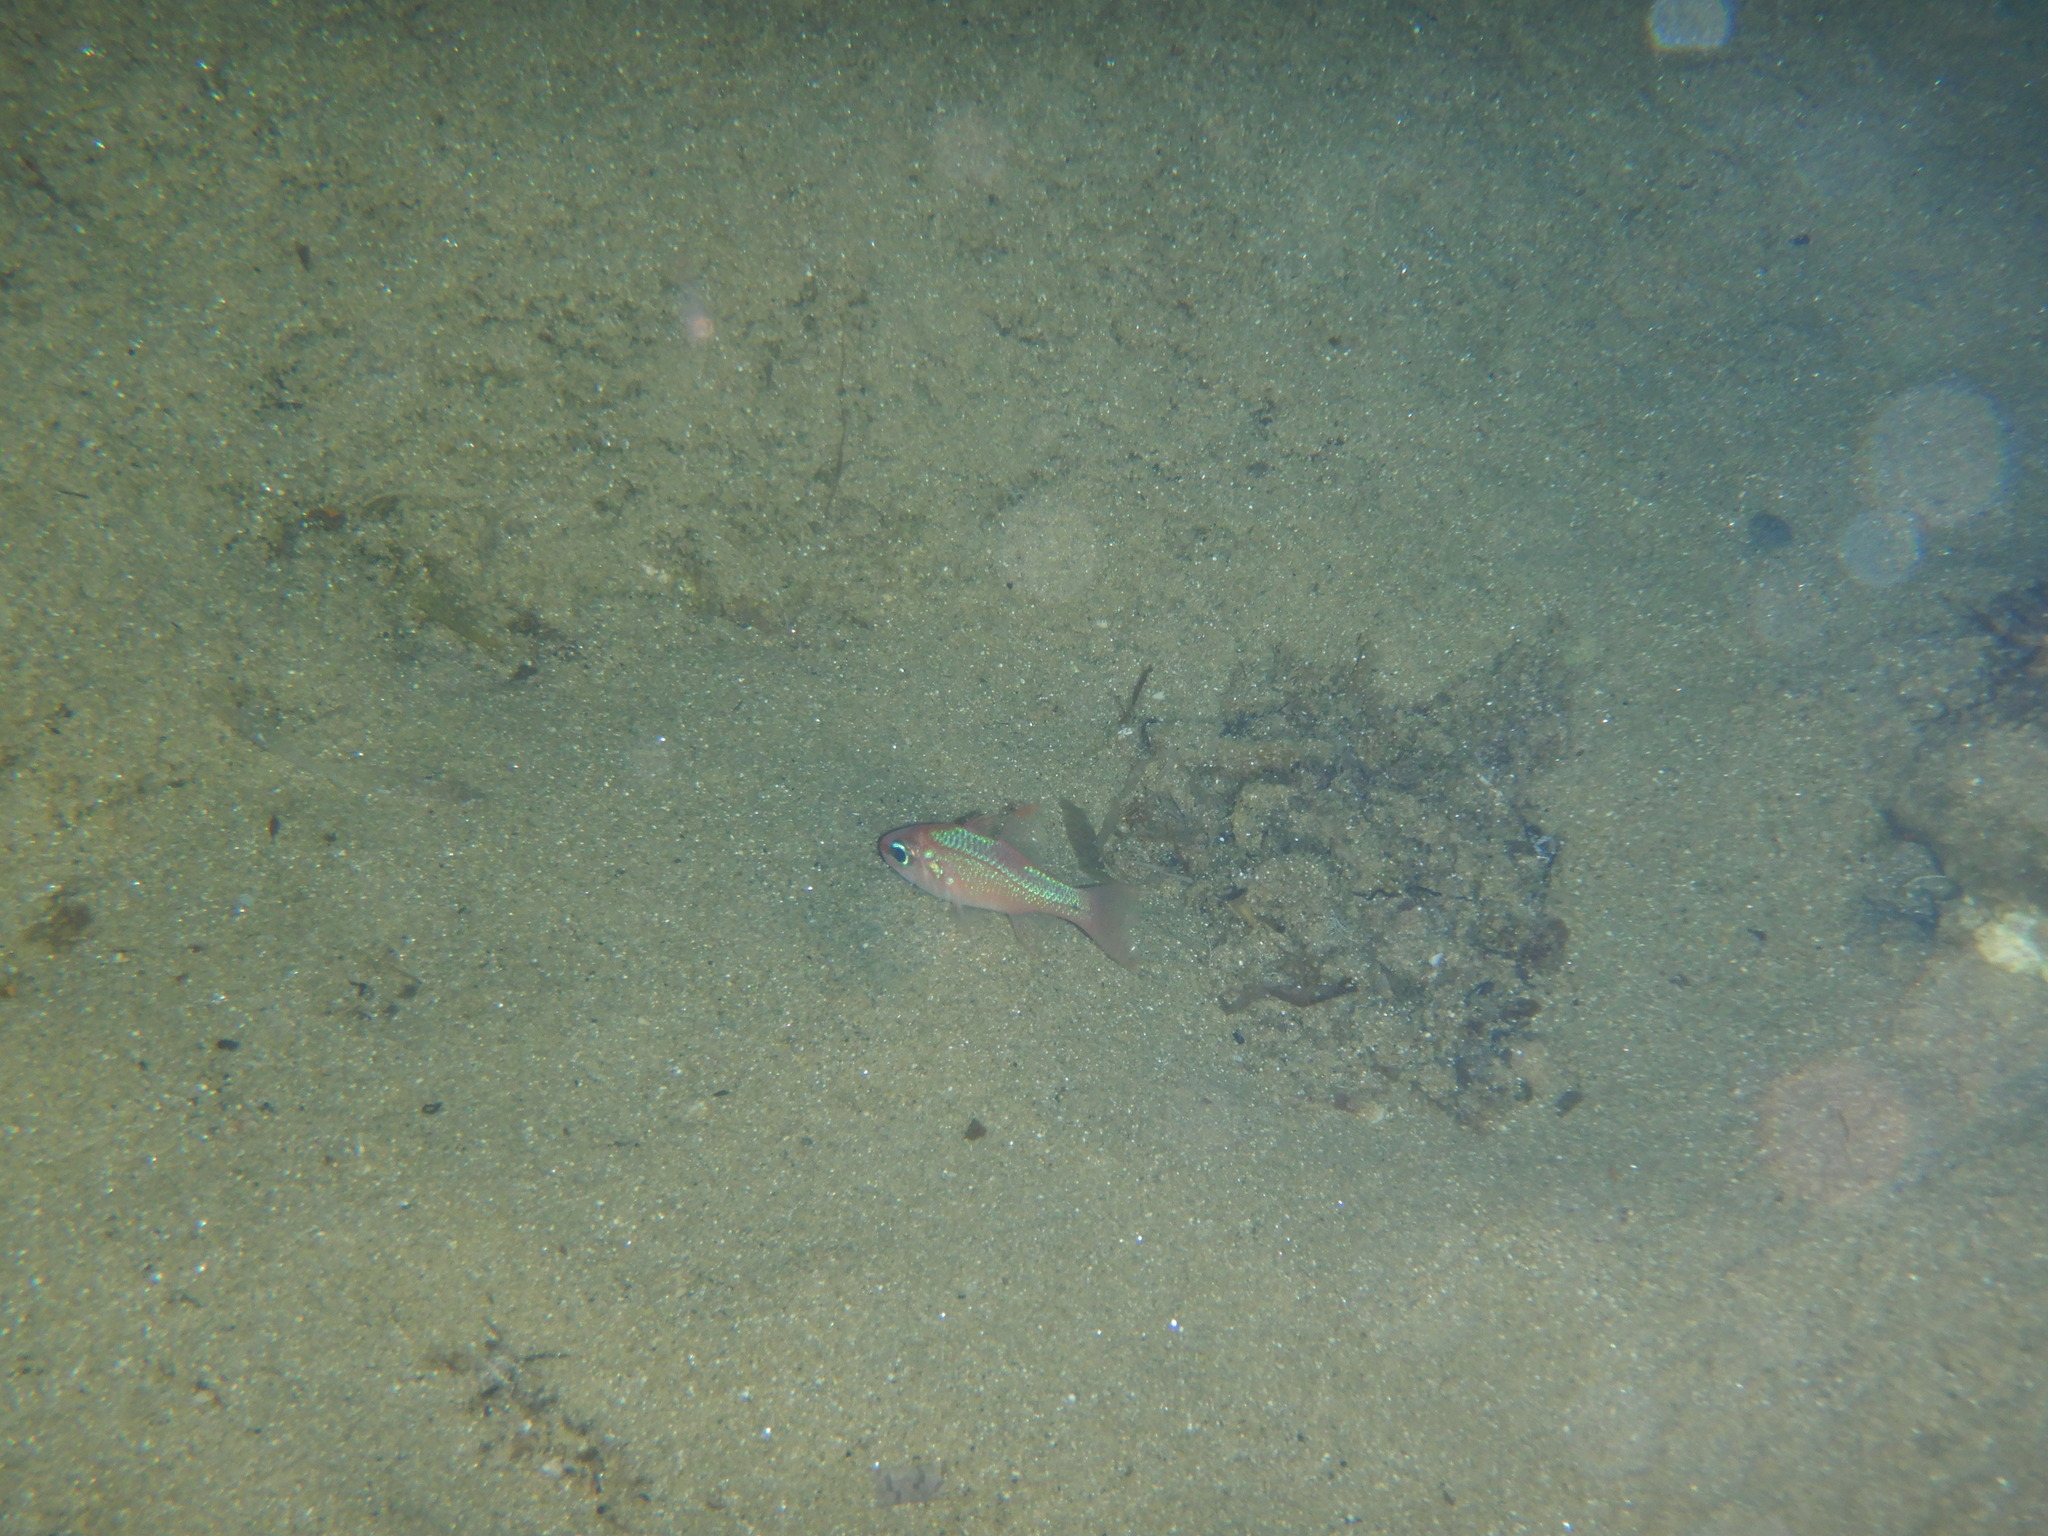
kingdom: Animalia
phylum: Chordata
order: Perciformes
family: Apogonidae
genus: Apogon
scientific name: Apogon imberbis
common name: Cardinal fish
